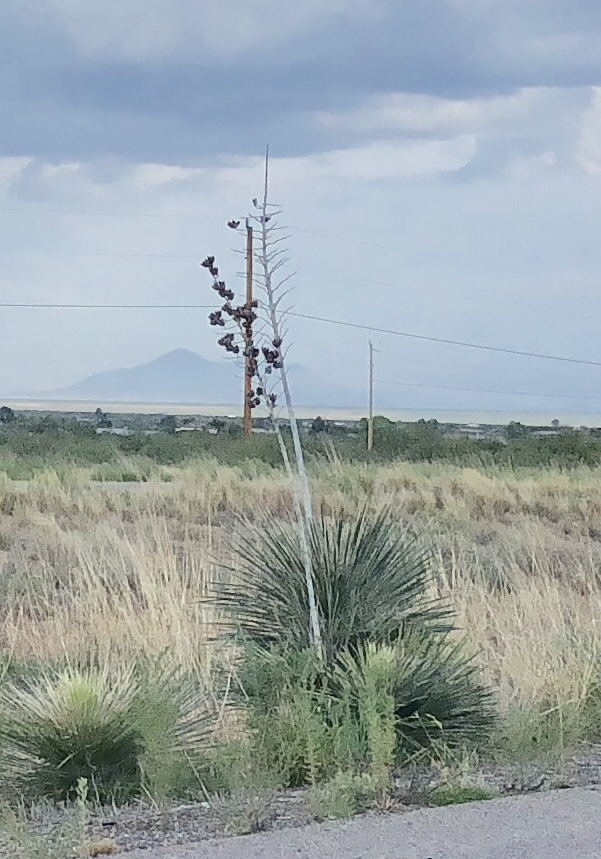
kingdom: Plantae
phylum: Tracheophyta
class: Liliopsida
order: Asparagales
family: Asparagaceae
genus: Yucca
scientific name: Yucca elata
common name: Palmella
